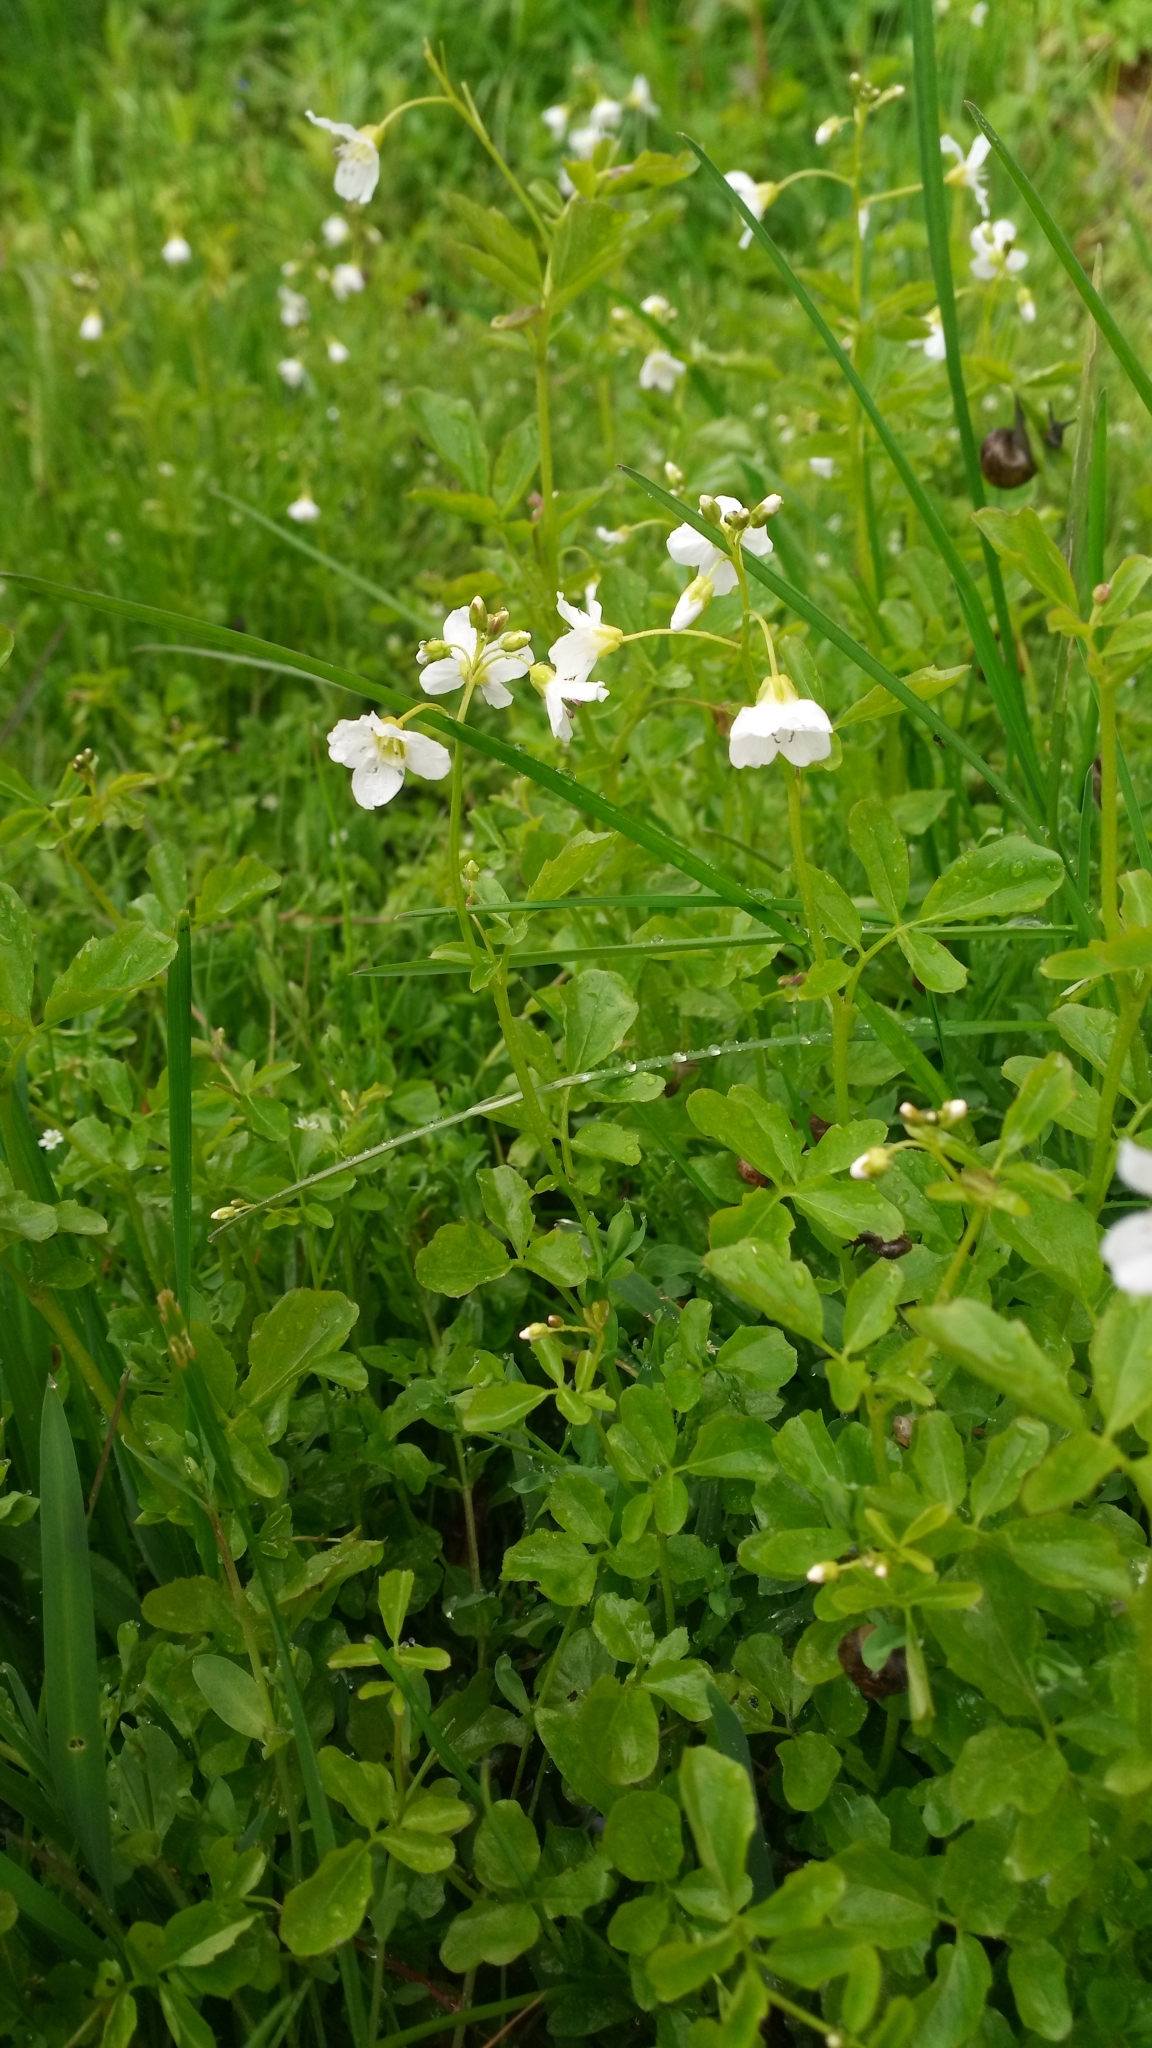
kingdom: Plantae
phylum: Tracheophyta
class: Magnoliopsida
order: Brassicales
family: Brassicaceae
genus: Cardamine
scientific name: Cardamine amara
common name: Large bitter-cress
